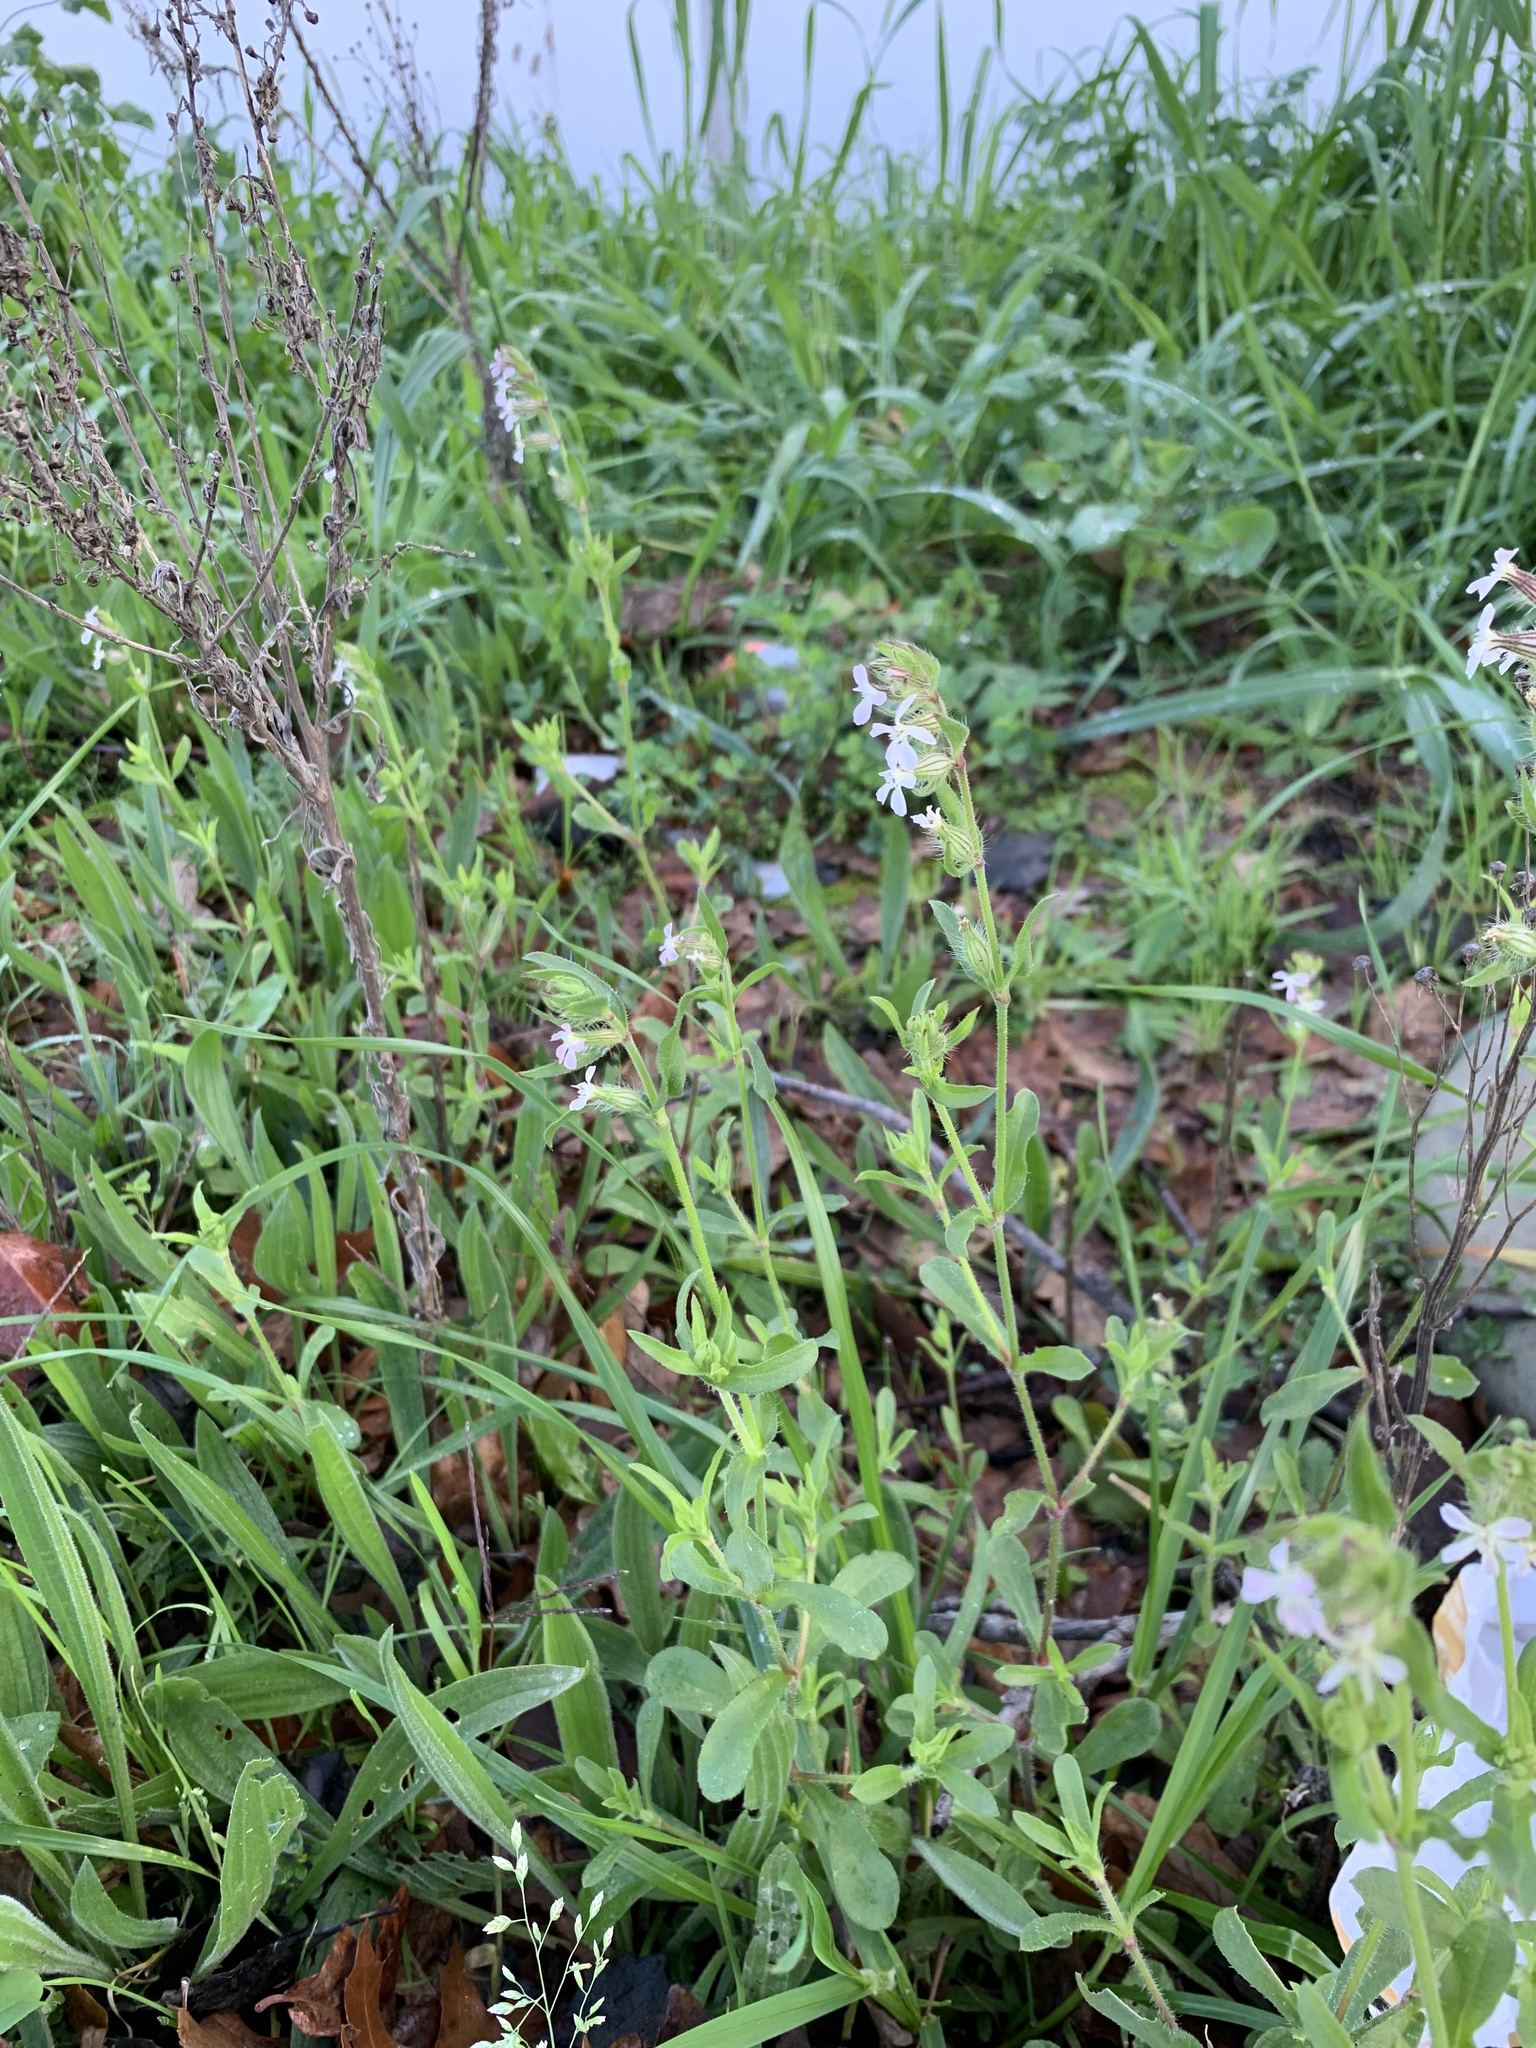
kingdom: Plantae
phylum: Tracheophyta
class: Magnoliopsida
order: Caryophyllales
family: Caryophyllaceae
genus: Silene
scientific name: Silene gallica
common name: Small-flowered catchfly
